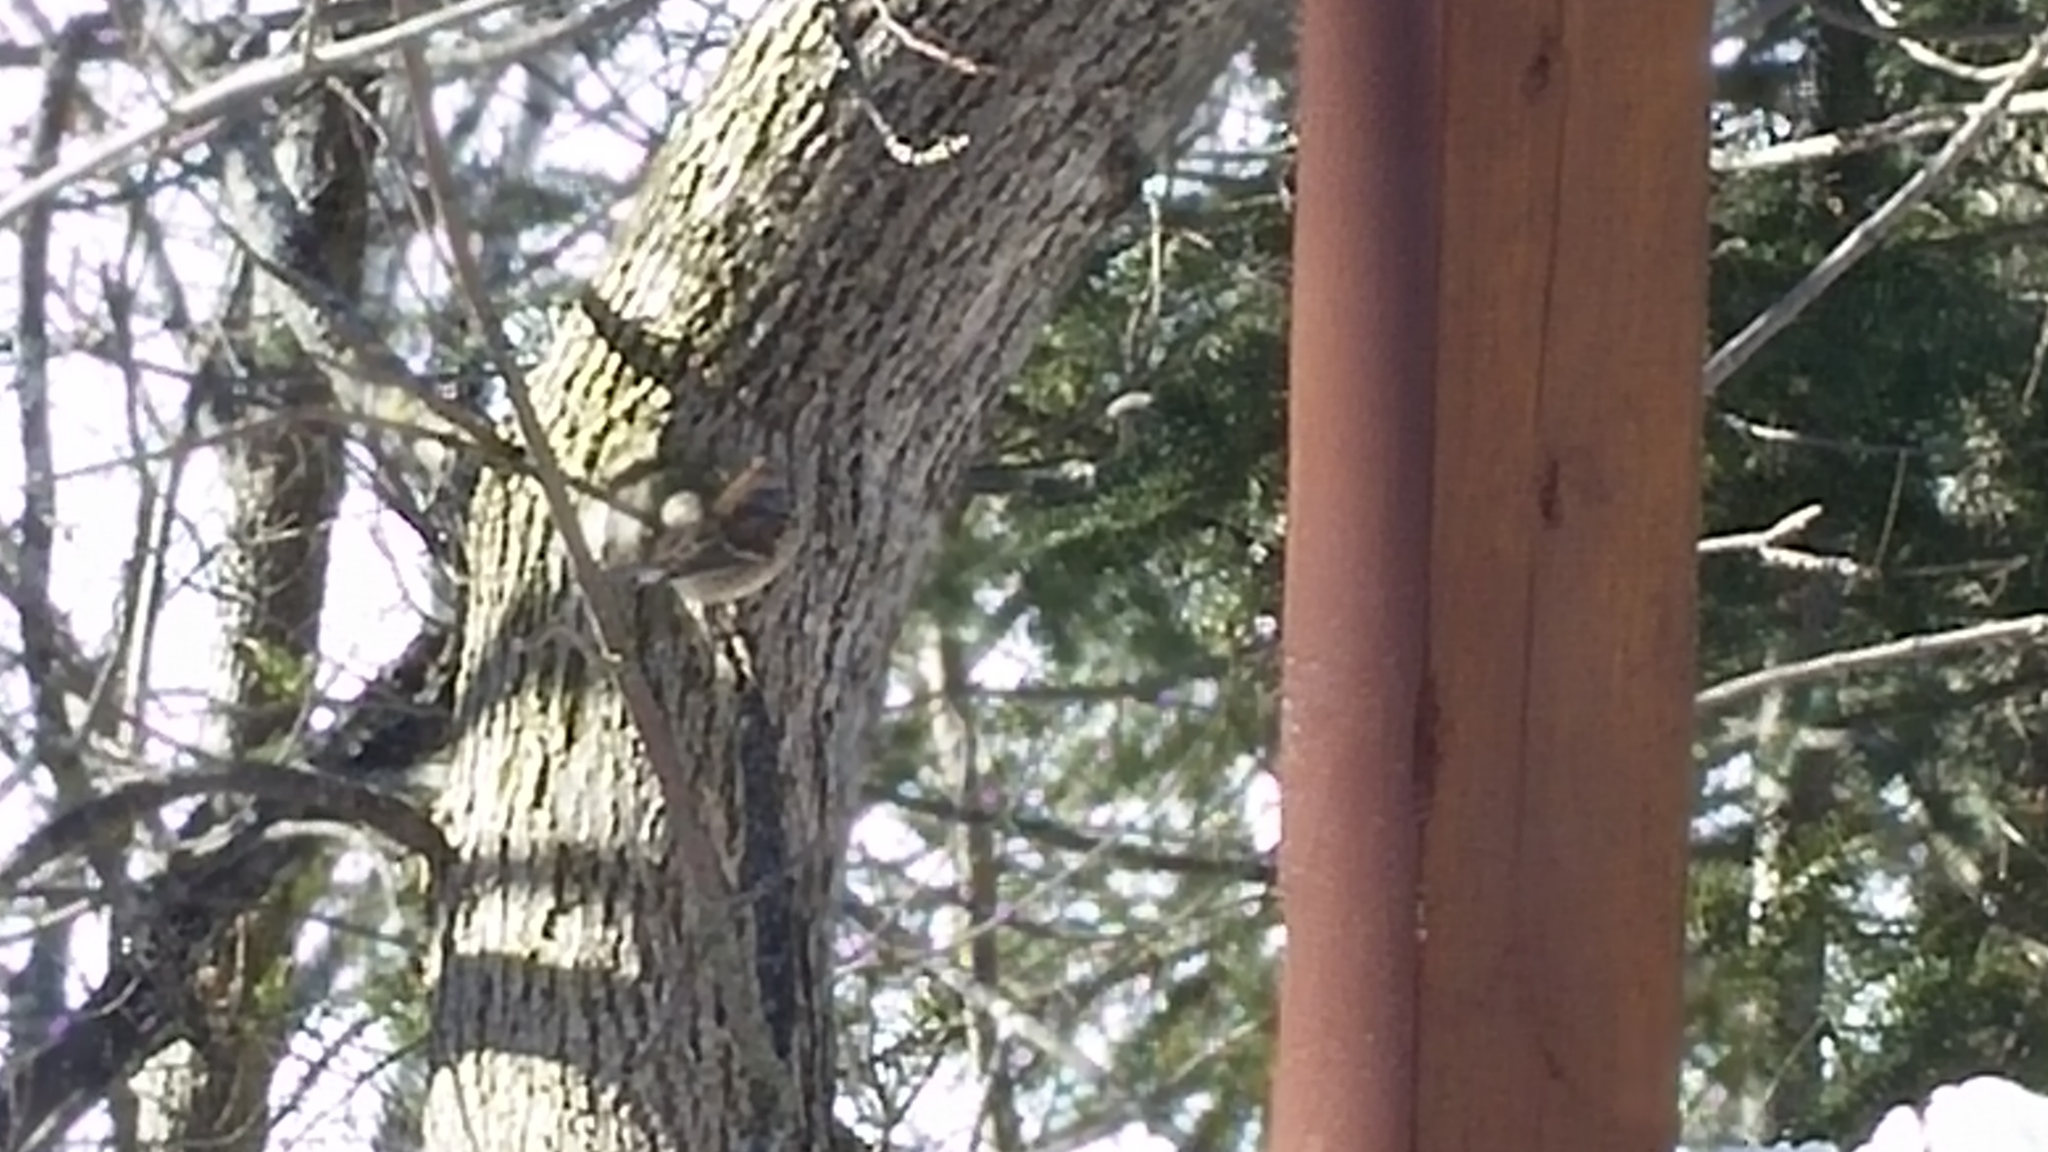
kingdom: Animalia
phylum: Chordata
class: Aves
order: Passeriformes
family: Passerellidae
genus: Spizelloides
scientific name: Spizelloides arborea
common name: American tree sparrow
